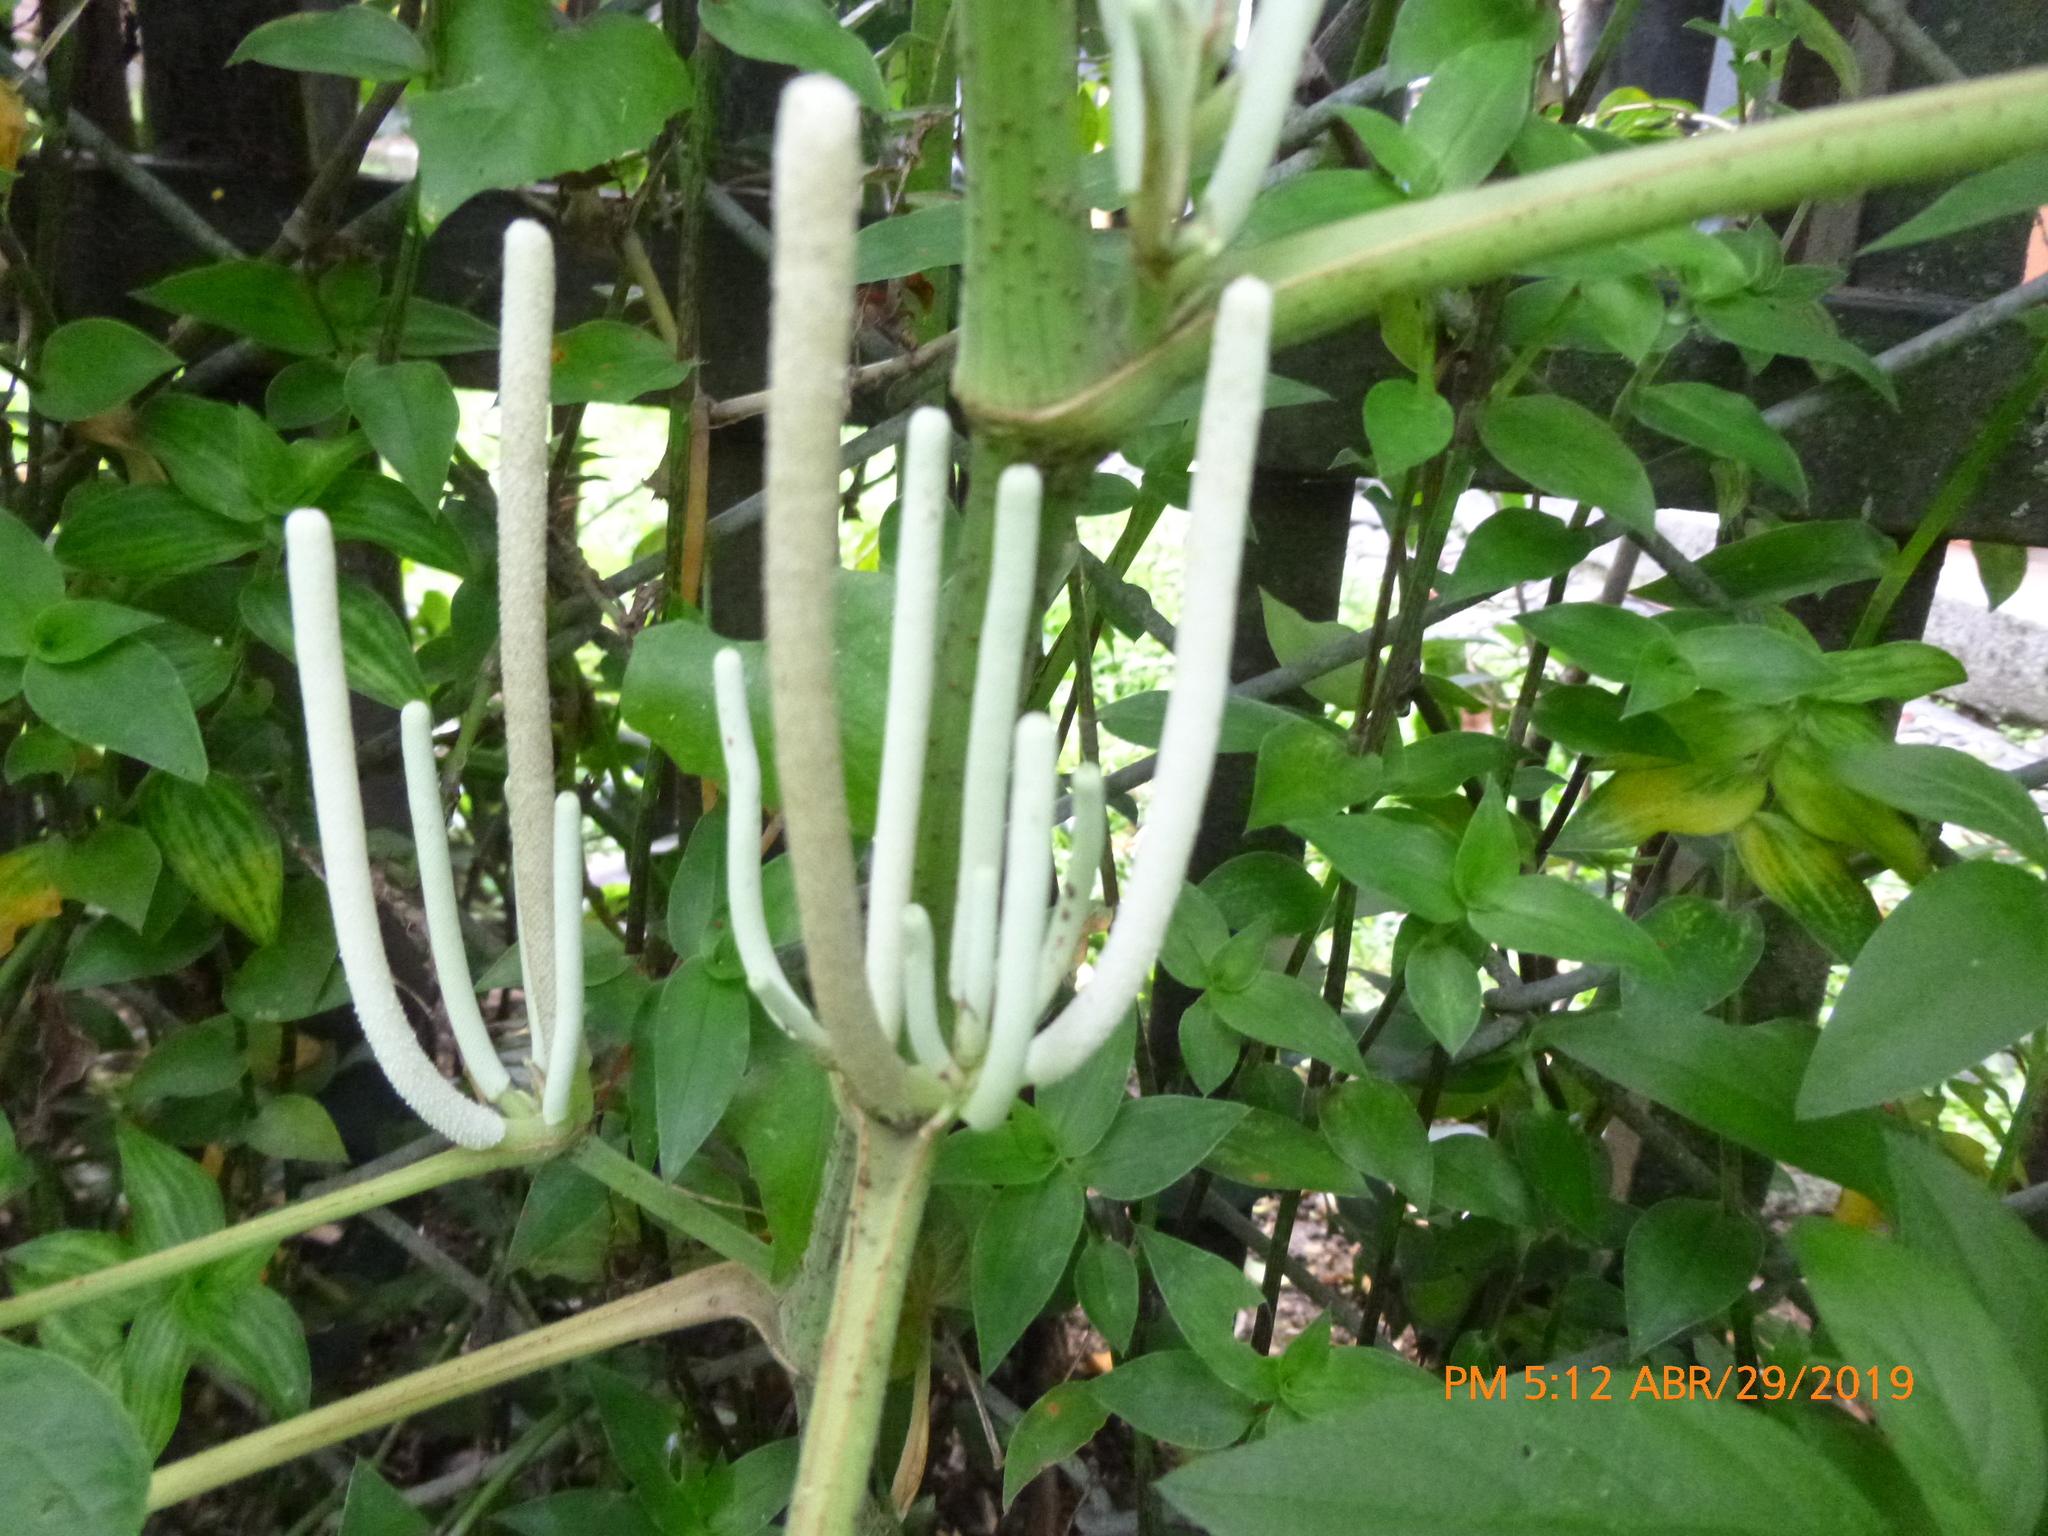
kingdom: Plantae
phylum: Tracheophyta
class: Magnoliopsida
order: Piperales
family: Piperaceae
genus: Piper
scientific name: Piper umbellatum
